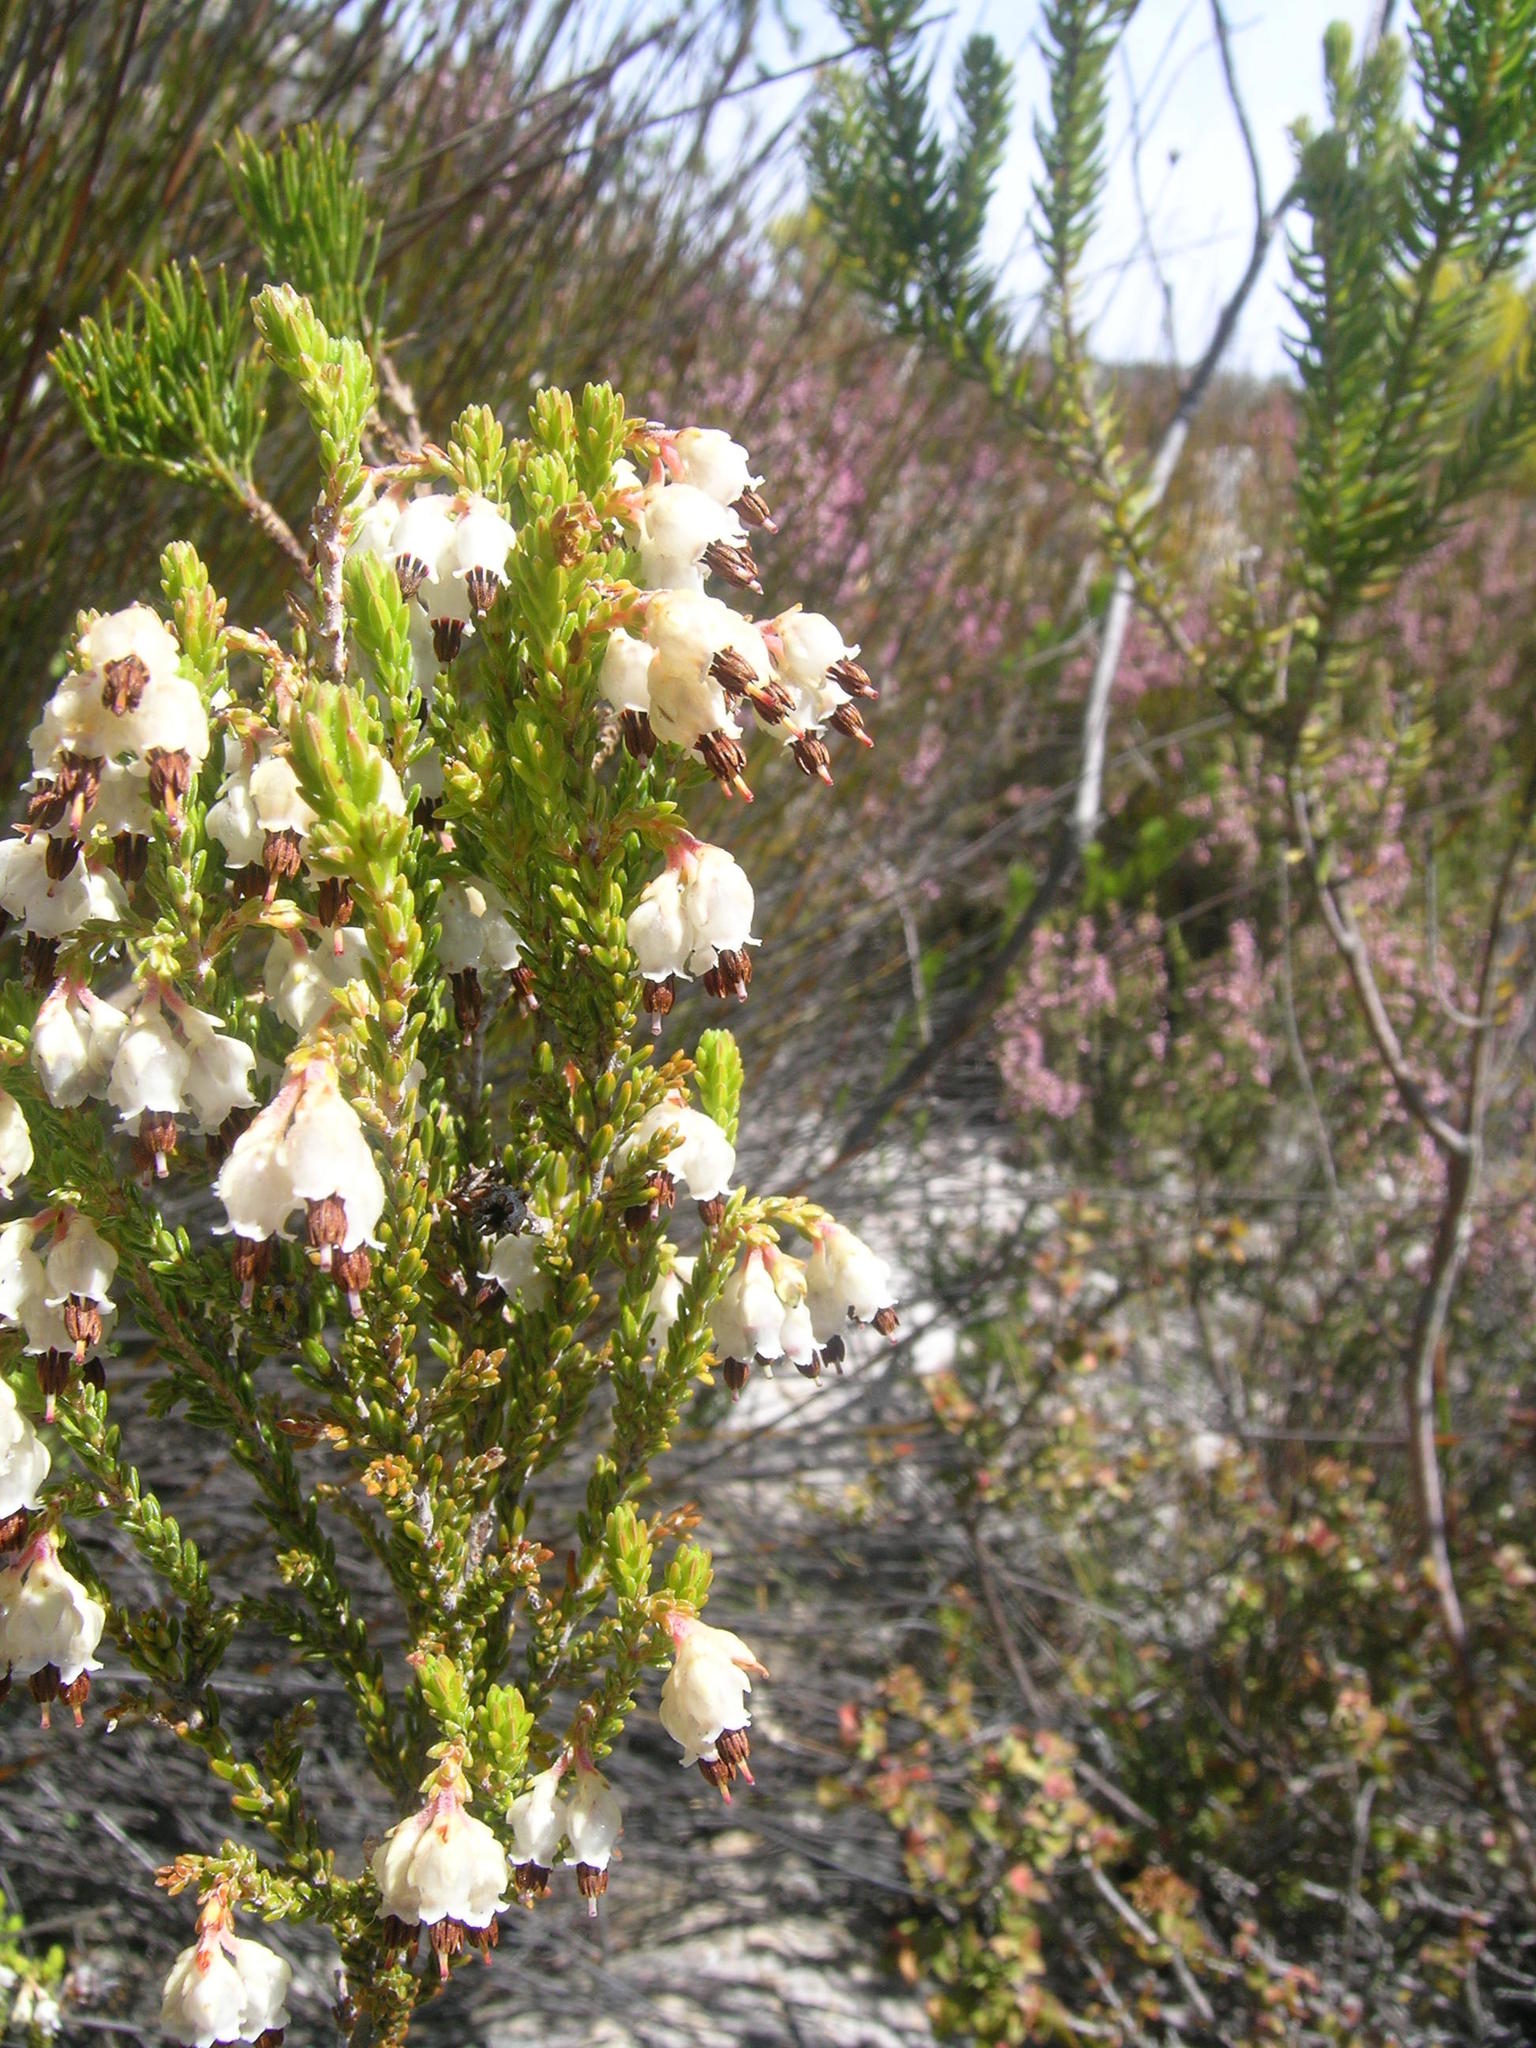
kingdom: Plantae
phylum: Tracheophyta
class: Magnoliopsida
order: Ericales
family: Ericaceae
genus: Erica
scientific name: Erica triceps
